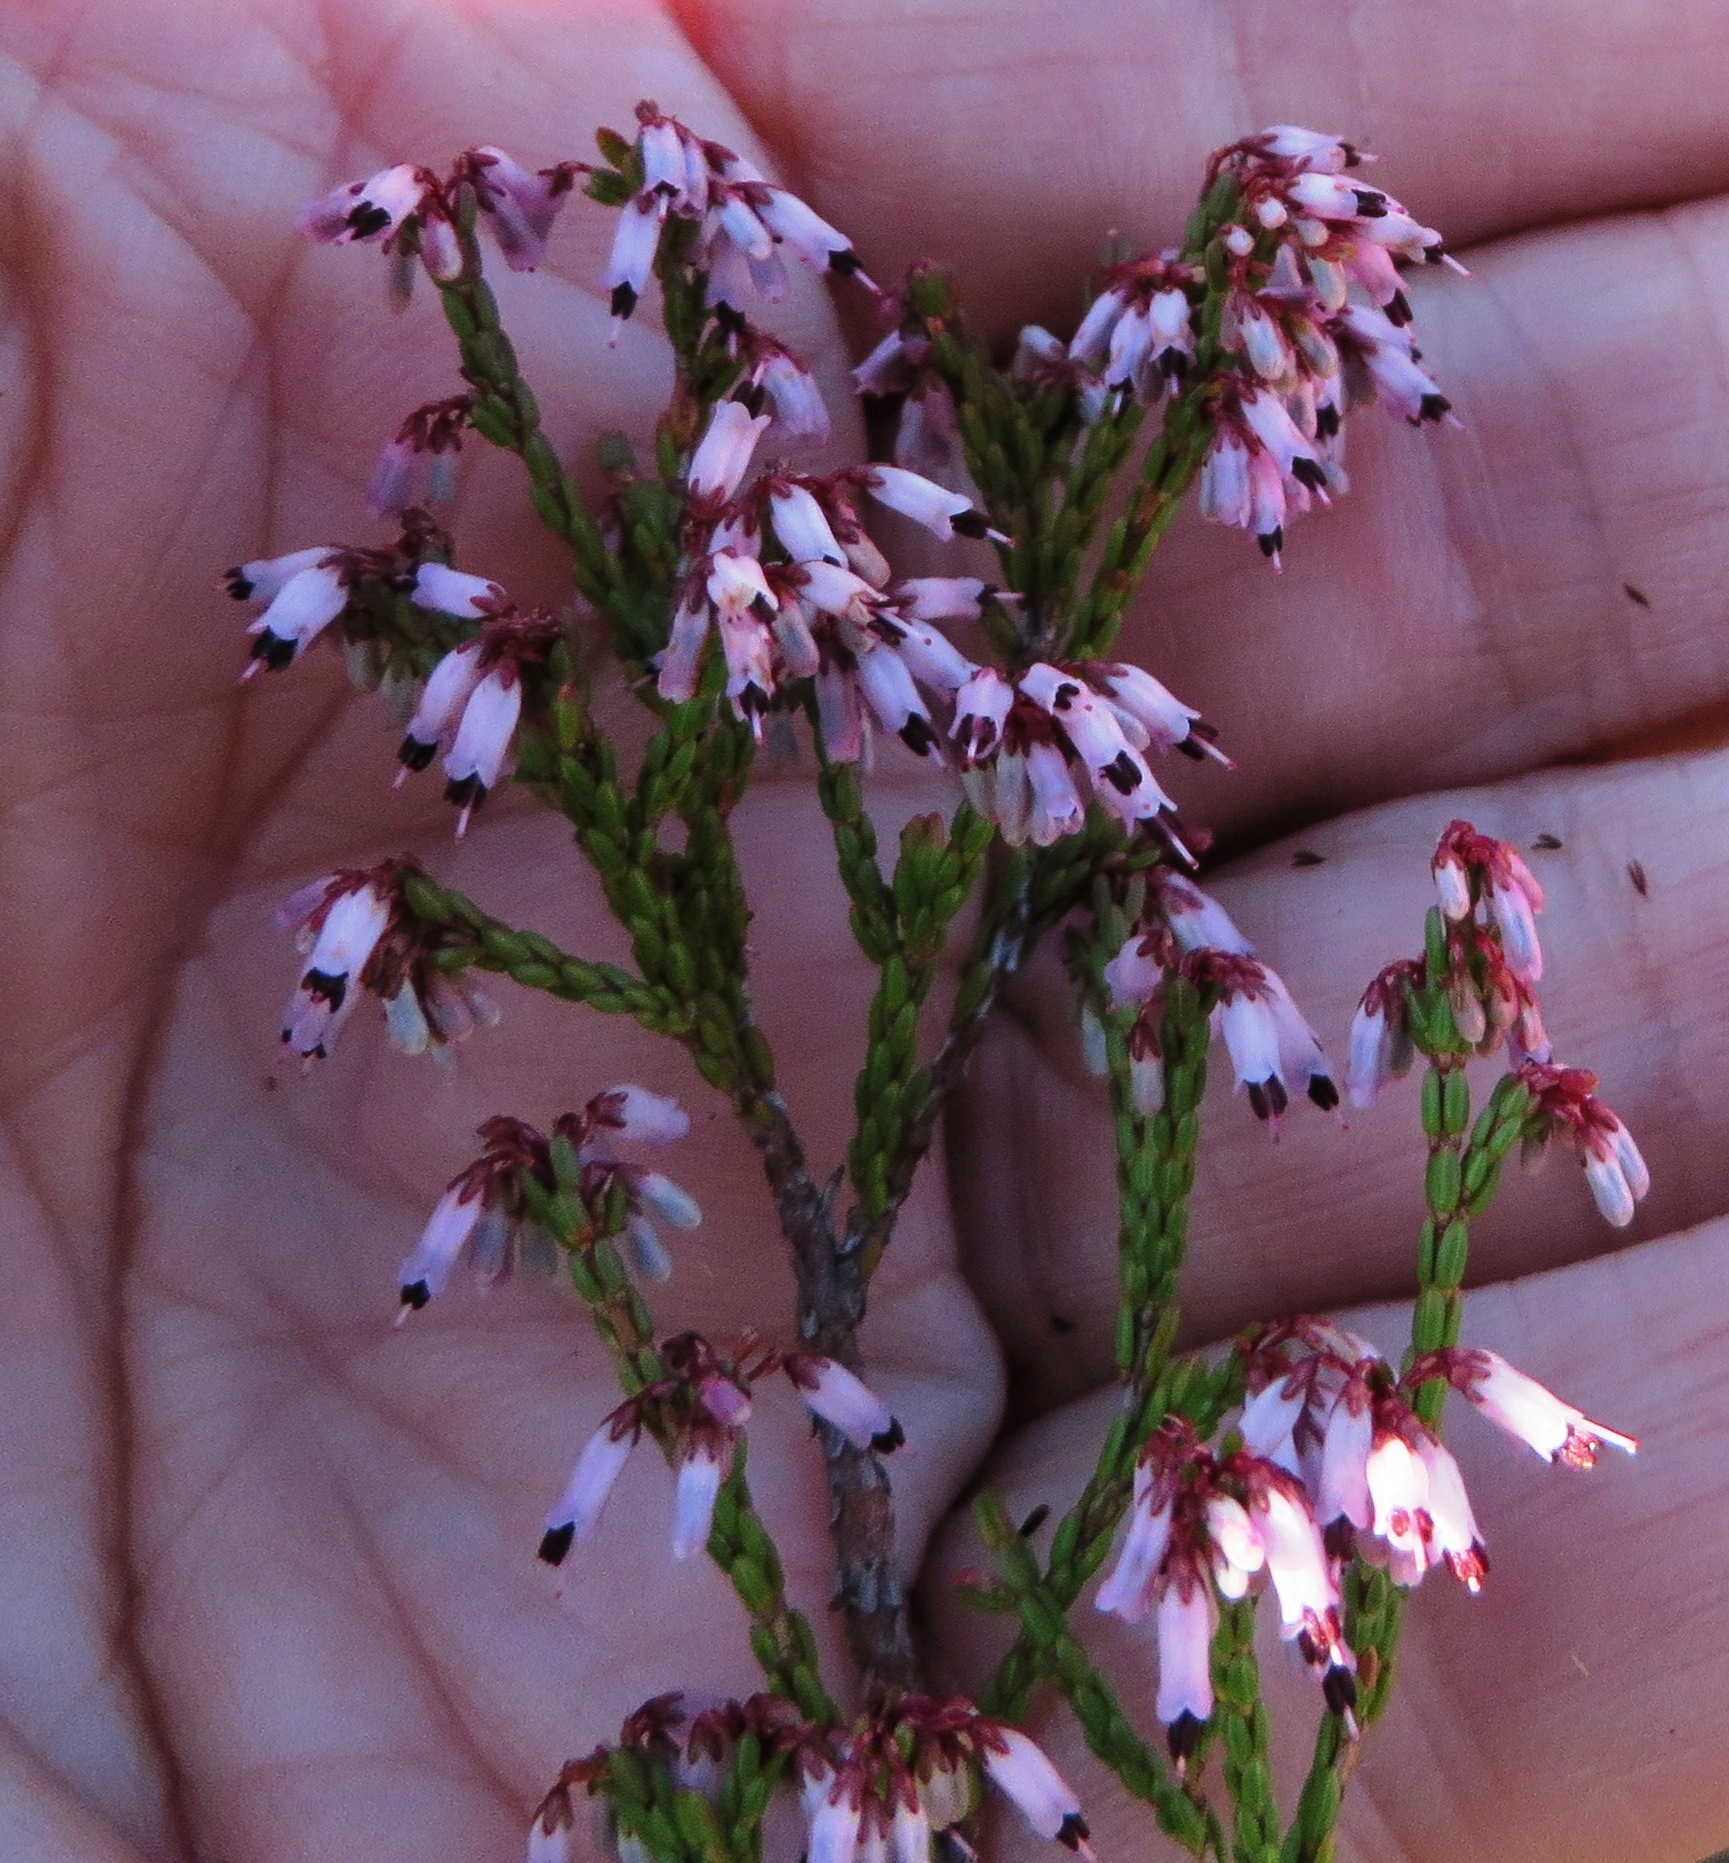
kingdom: Plantae
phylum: Tracheophyta
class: Magnoliopsida
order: Ericales
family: Ericaceae
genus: Erica
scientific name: Erica equisetifolia
